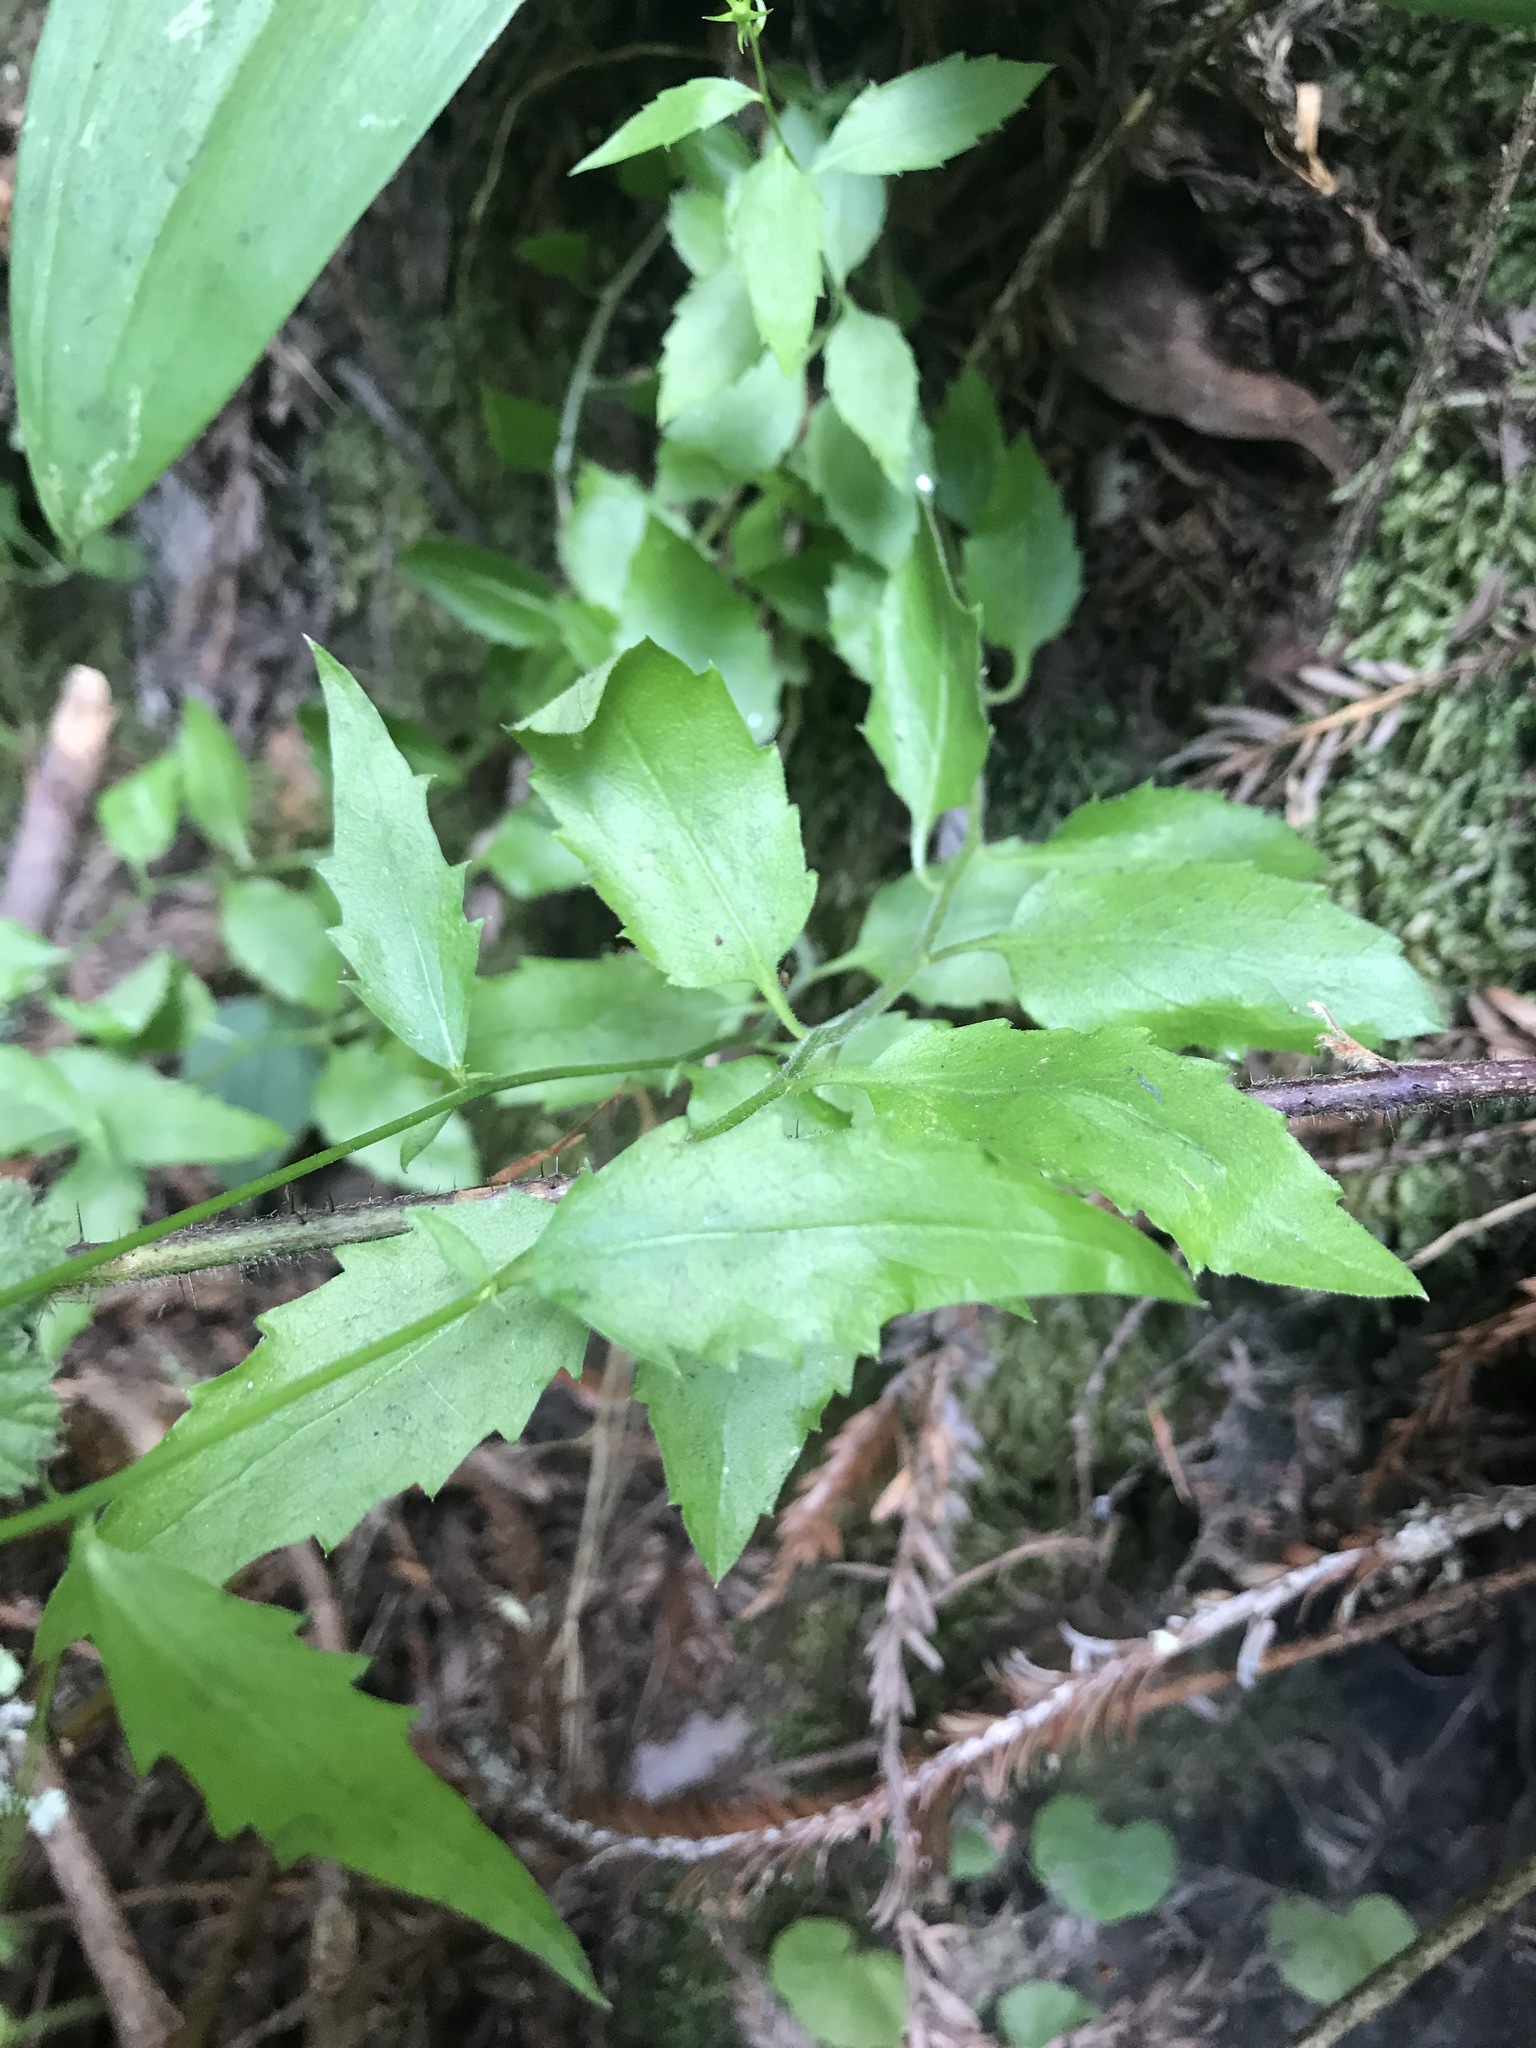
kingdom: Plantae
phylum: Tracheophyta
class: Magnoliopsida
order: Asterales
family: Campanulaceae
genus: Smithiastrum
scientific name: Smithiastrum prenanthoides
